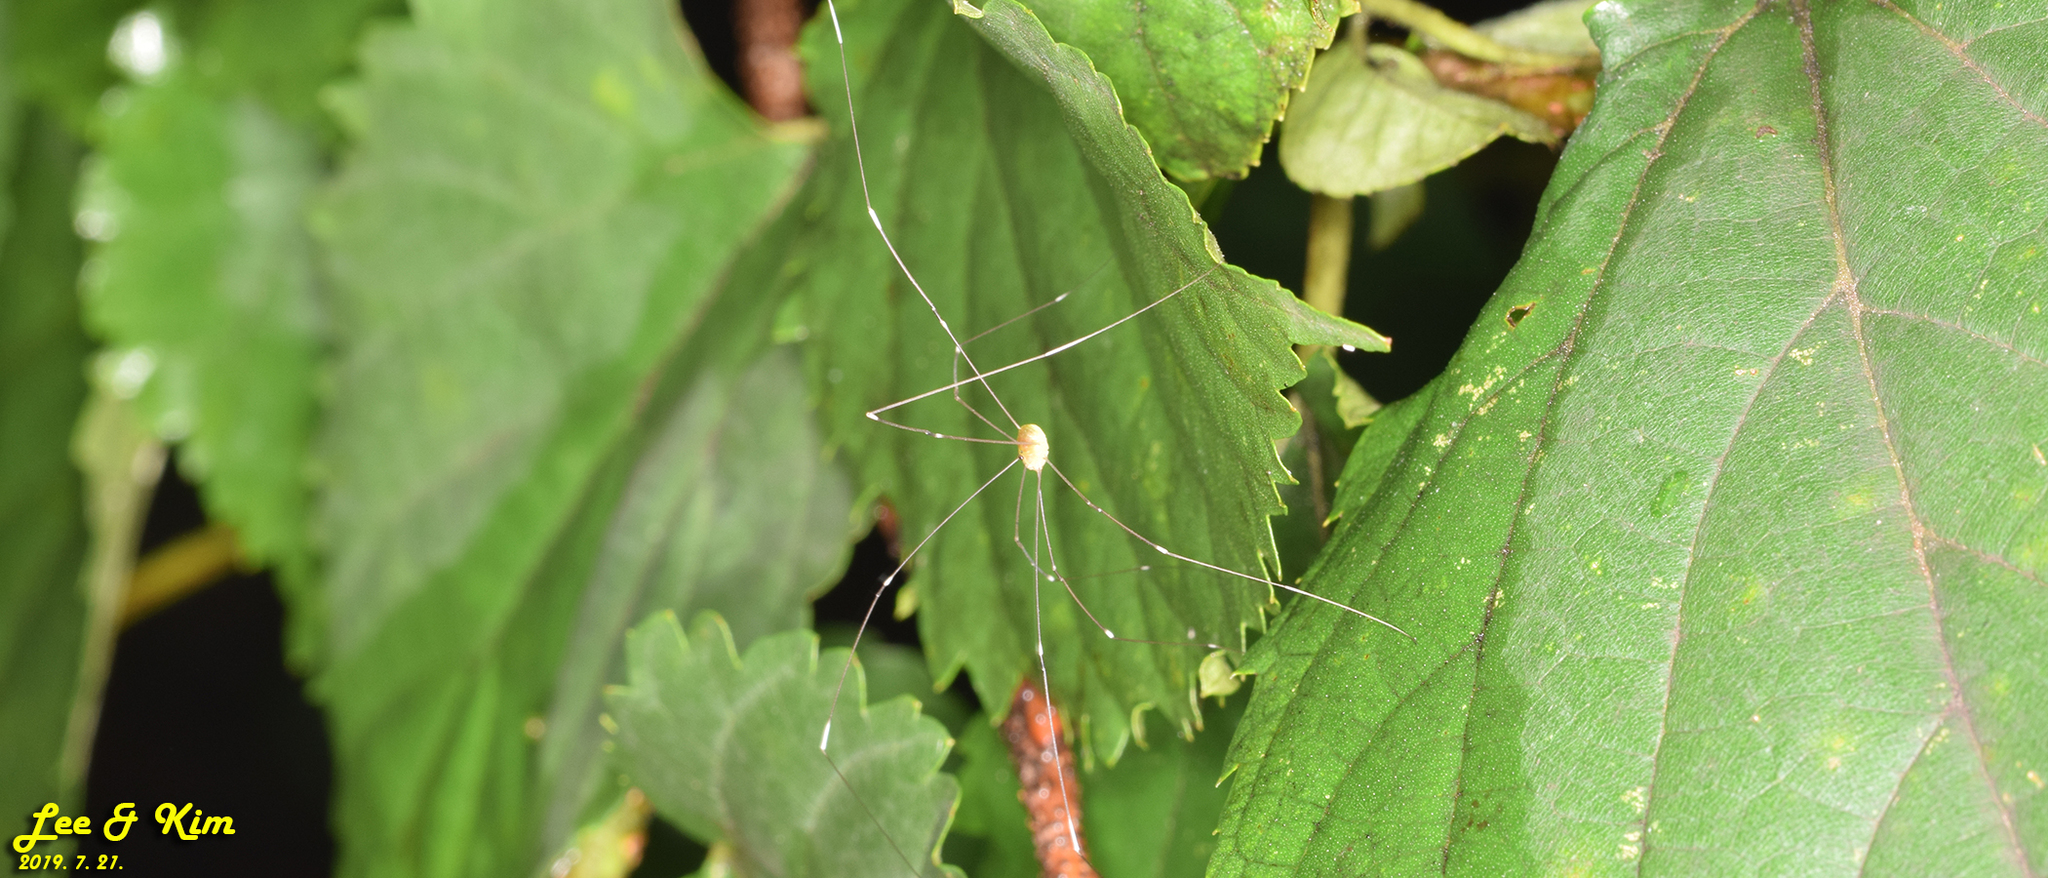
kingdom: Animalia
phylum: Arthropoda
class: Arachnida
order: Opiliones
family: Sclerosomatidae
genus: Leiobunum
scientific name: Leiobunum japonicum
